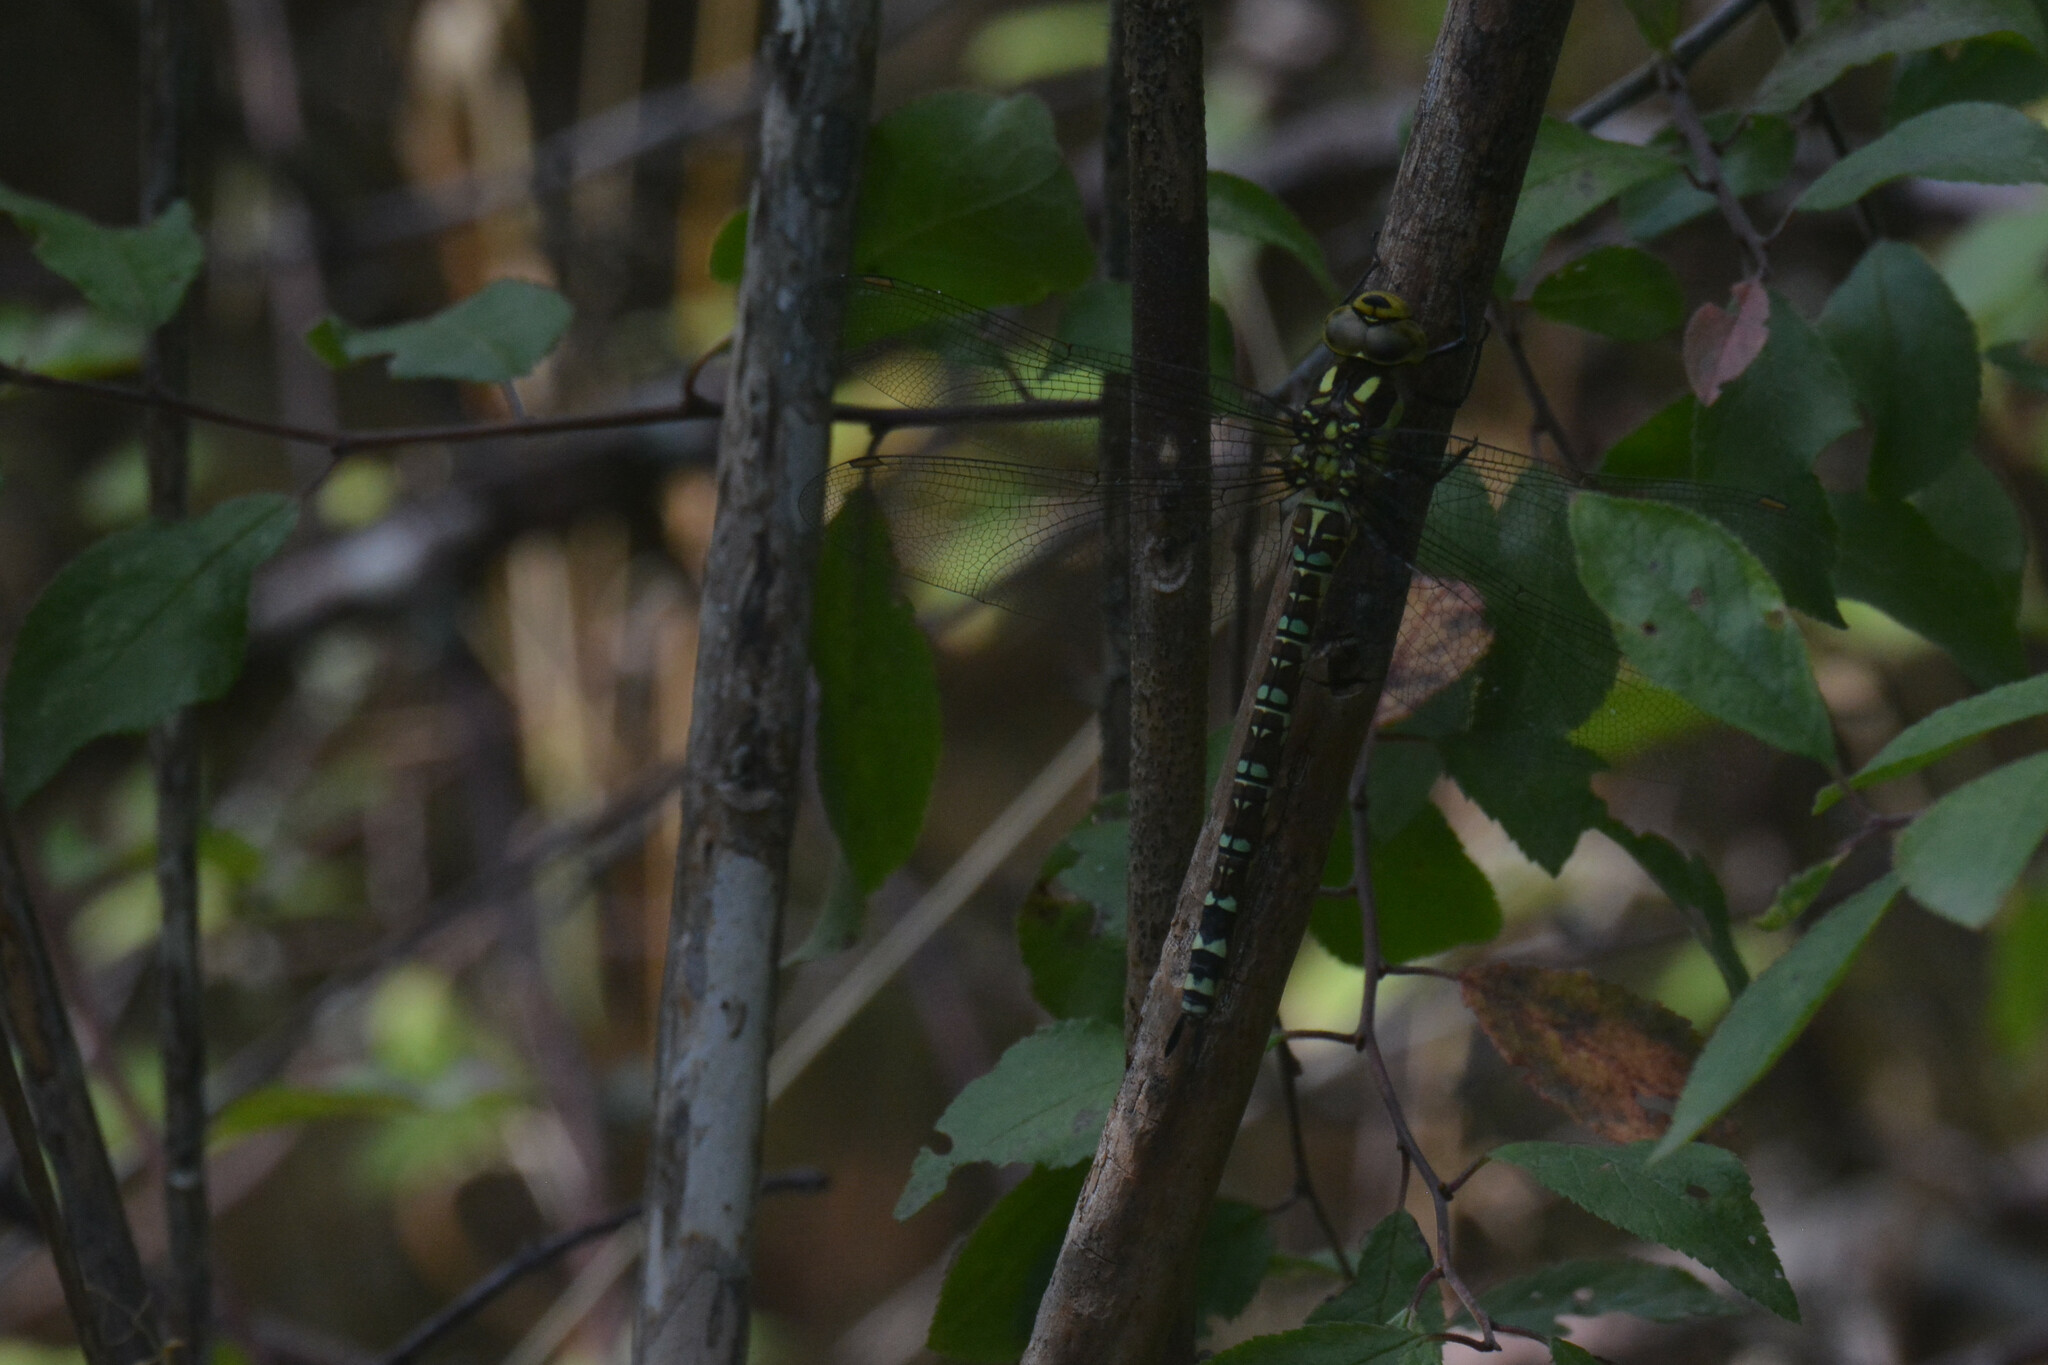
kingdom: Animalia
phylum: Arthropoda
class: Insecta
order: Odonata
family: Aeshnidae
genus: Aeshna
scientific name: Aeshna cyanea
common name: Southern hawker
